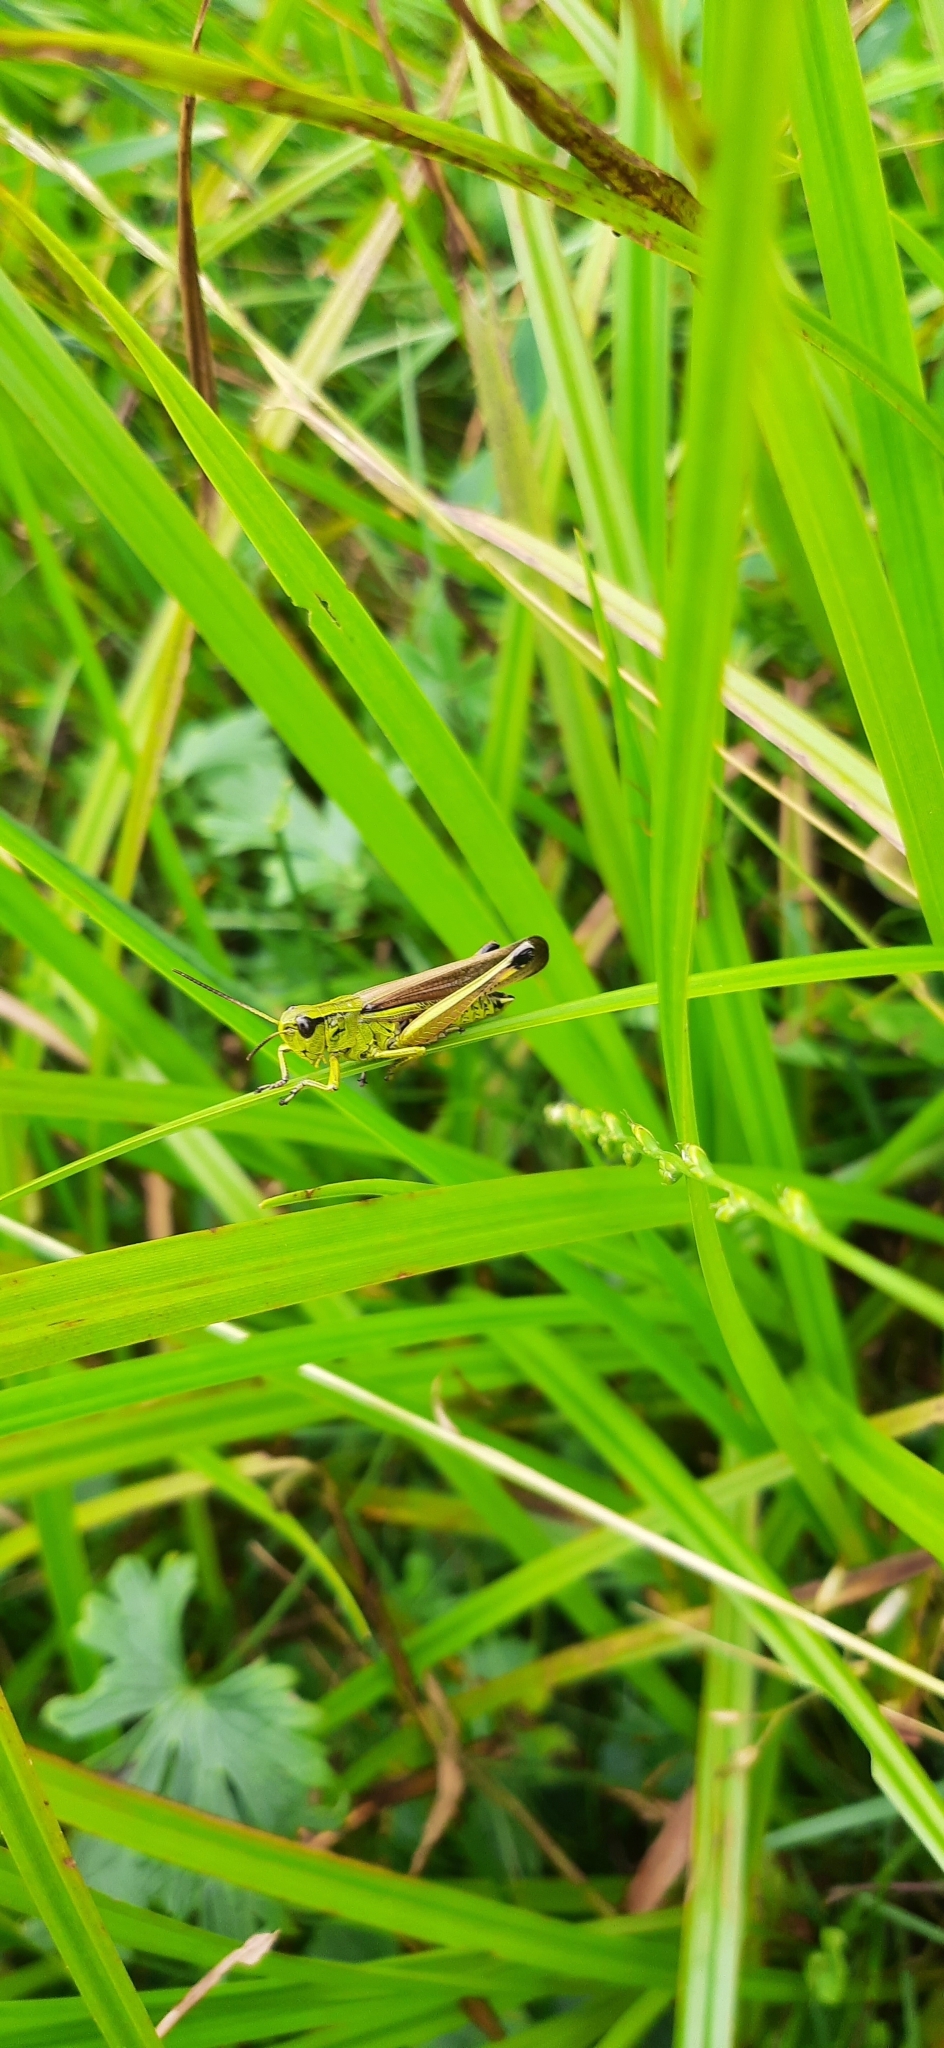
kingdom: Animalia
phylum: Arthropoda
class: Insecta
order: Orthoptera
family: Acrididae
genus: Stethophyma
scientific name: Stethophyma grossum
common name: Large marsh grasshopper
